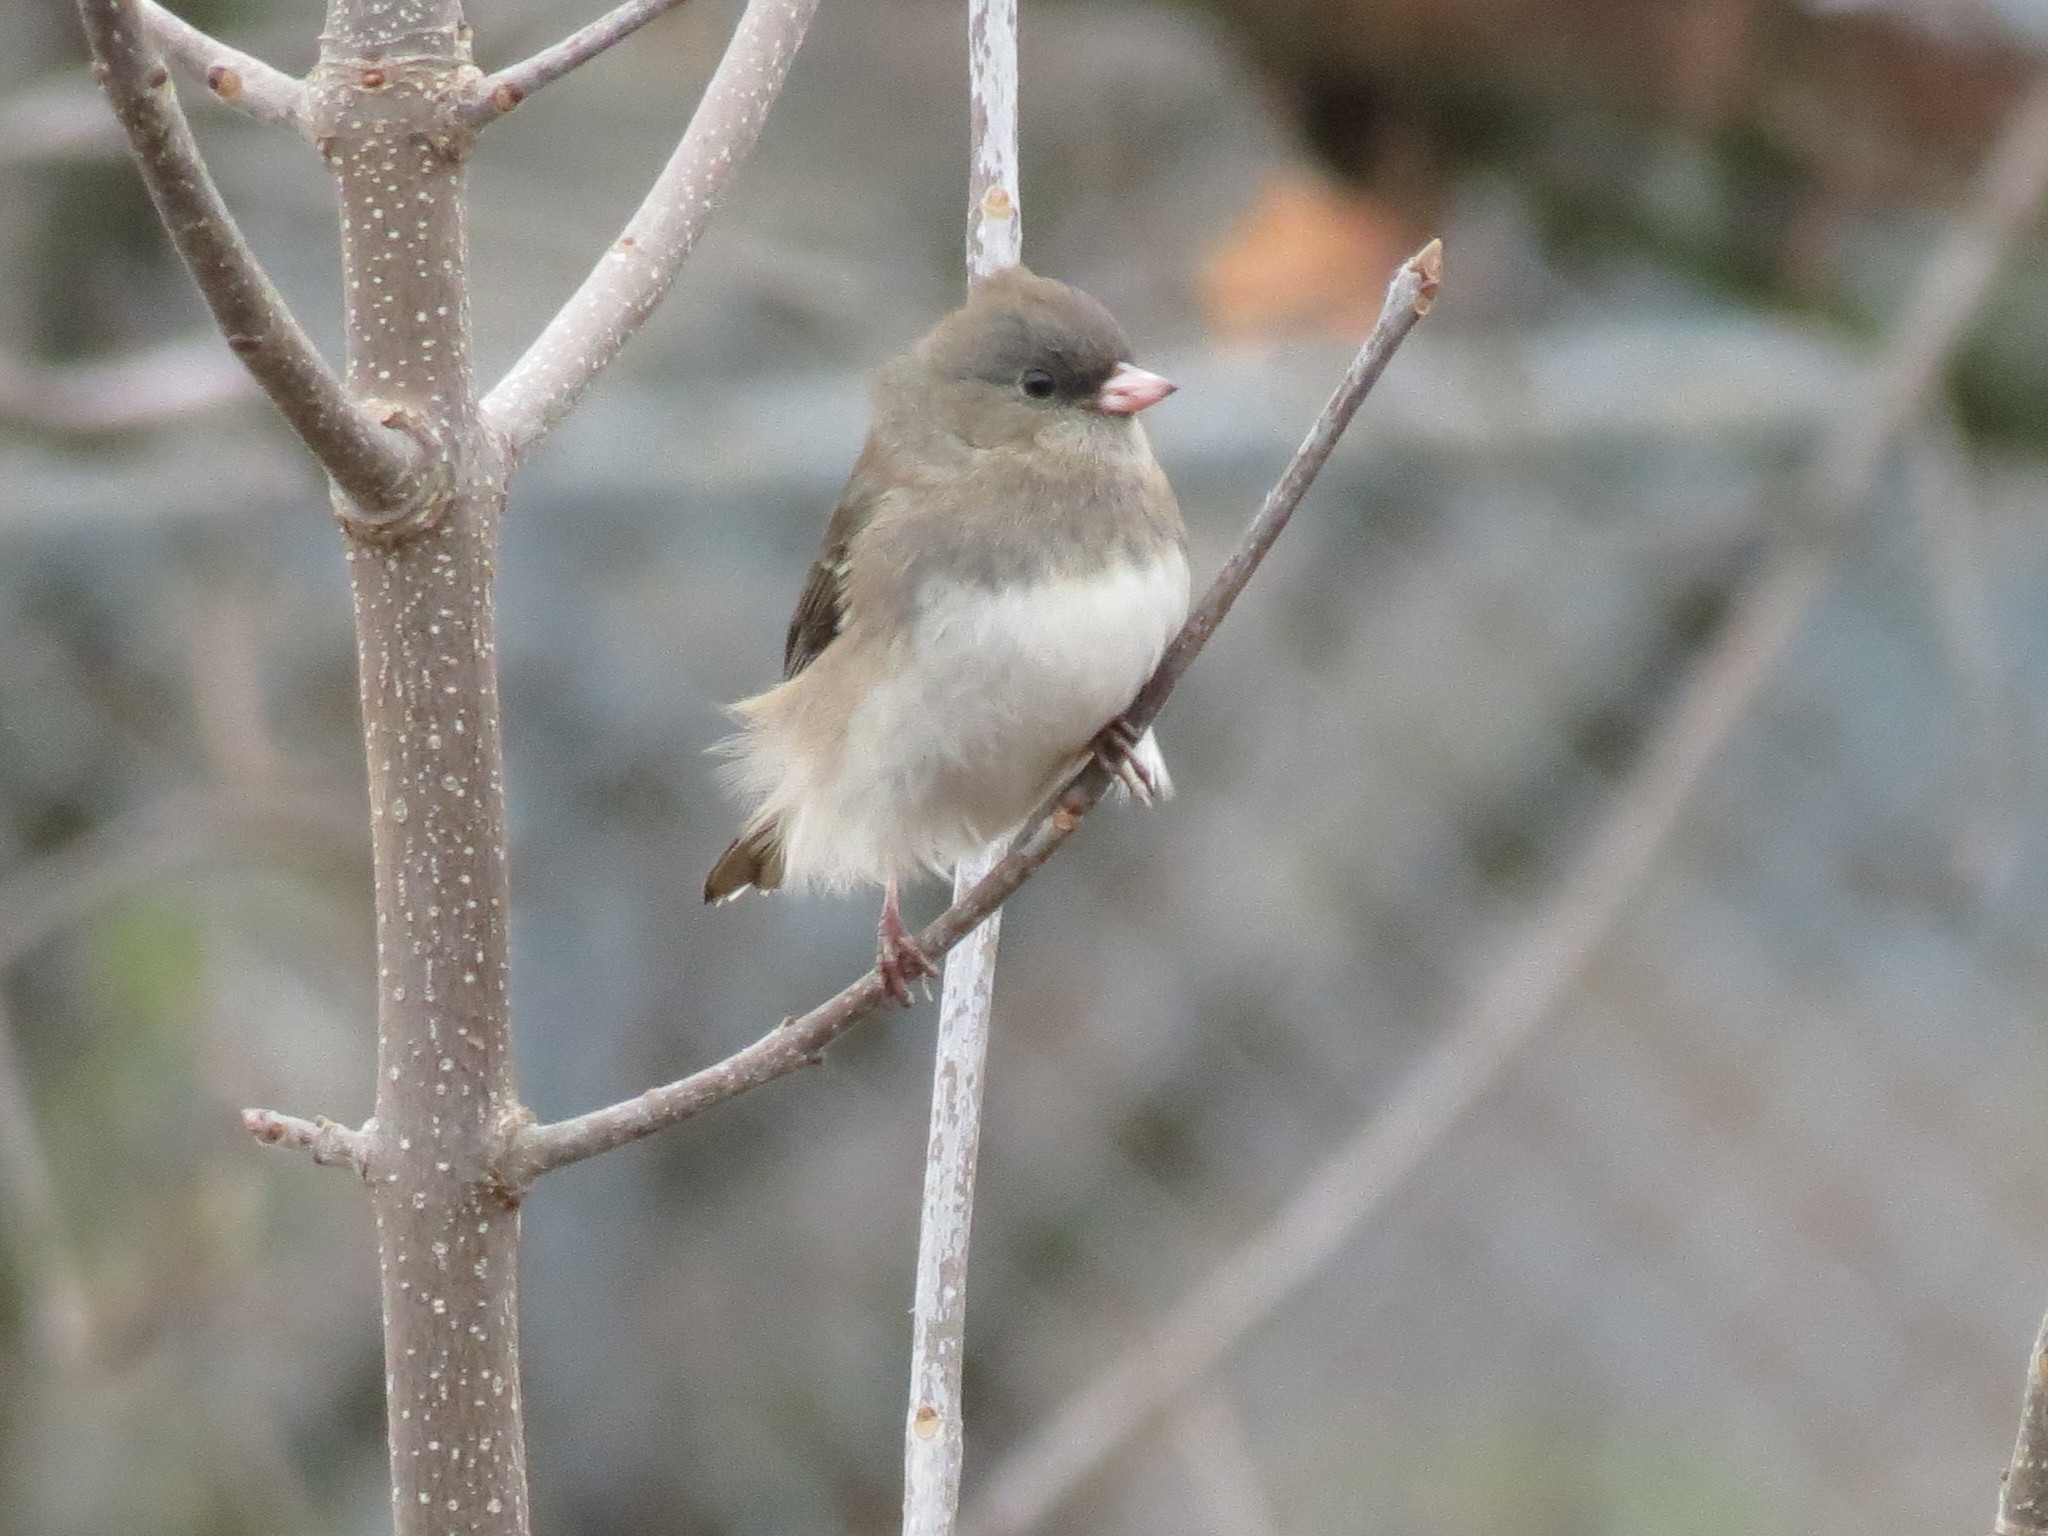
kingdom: Animalia
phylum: Chordata
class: Aves
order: Passeriformes
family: Passerellidae
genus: Junco
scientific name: Junco hyemalis
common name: Dark-eyed junco
